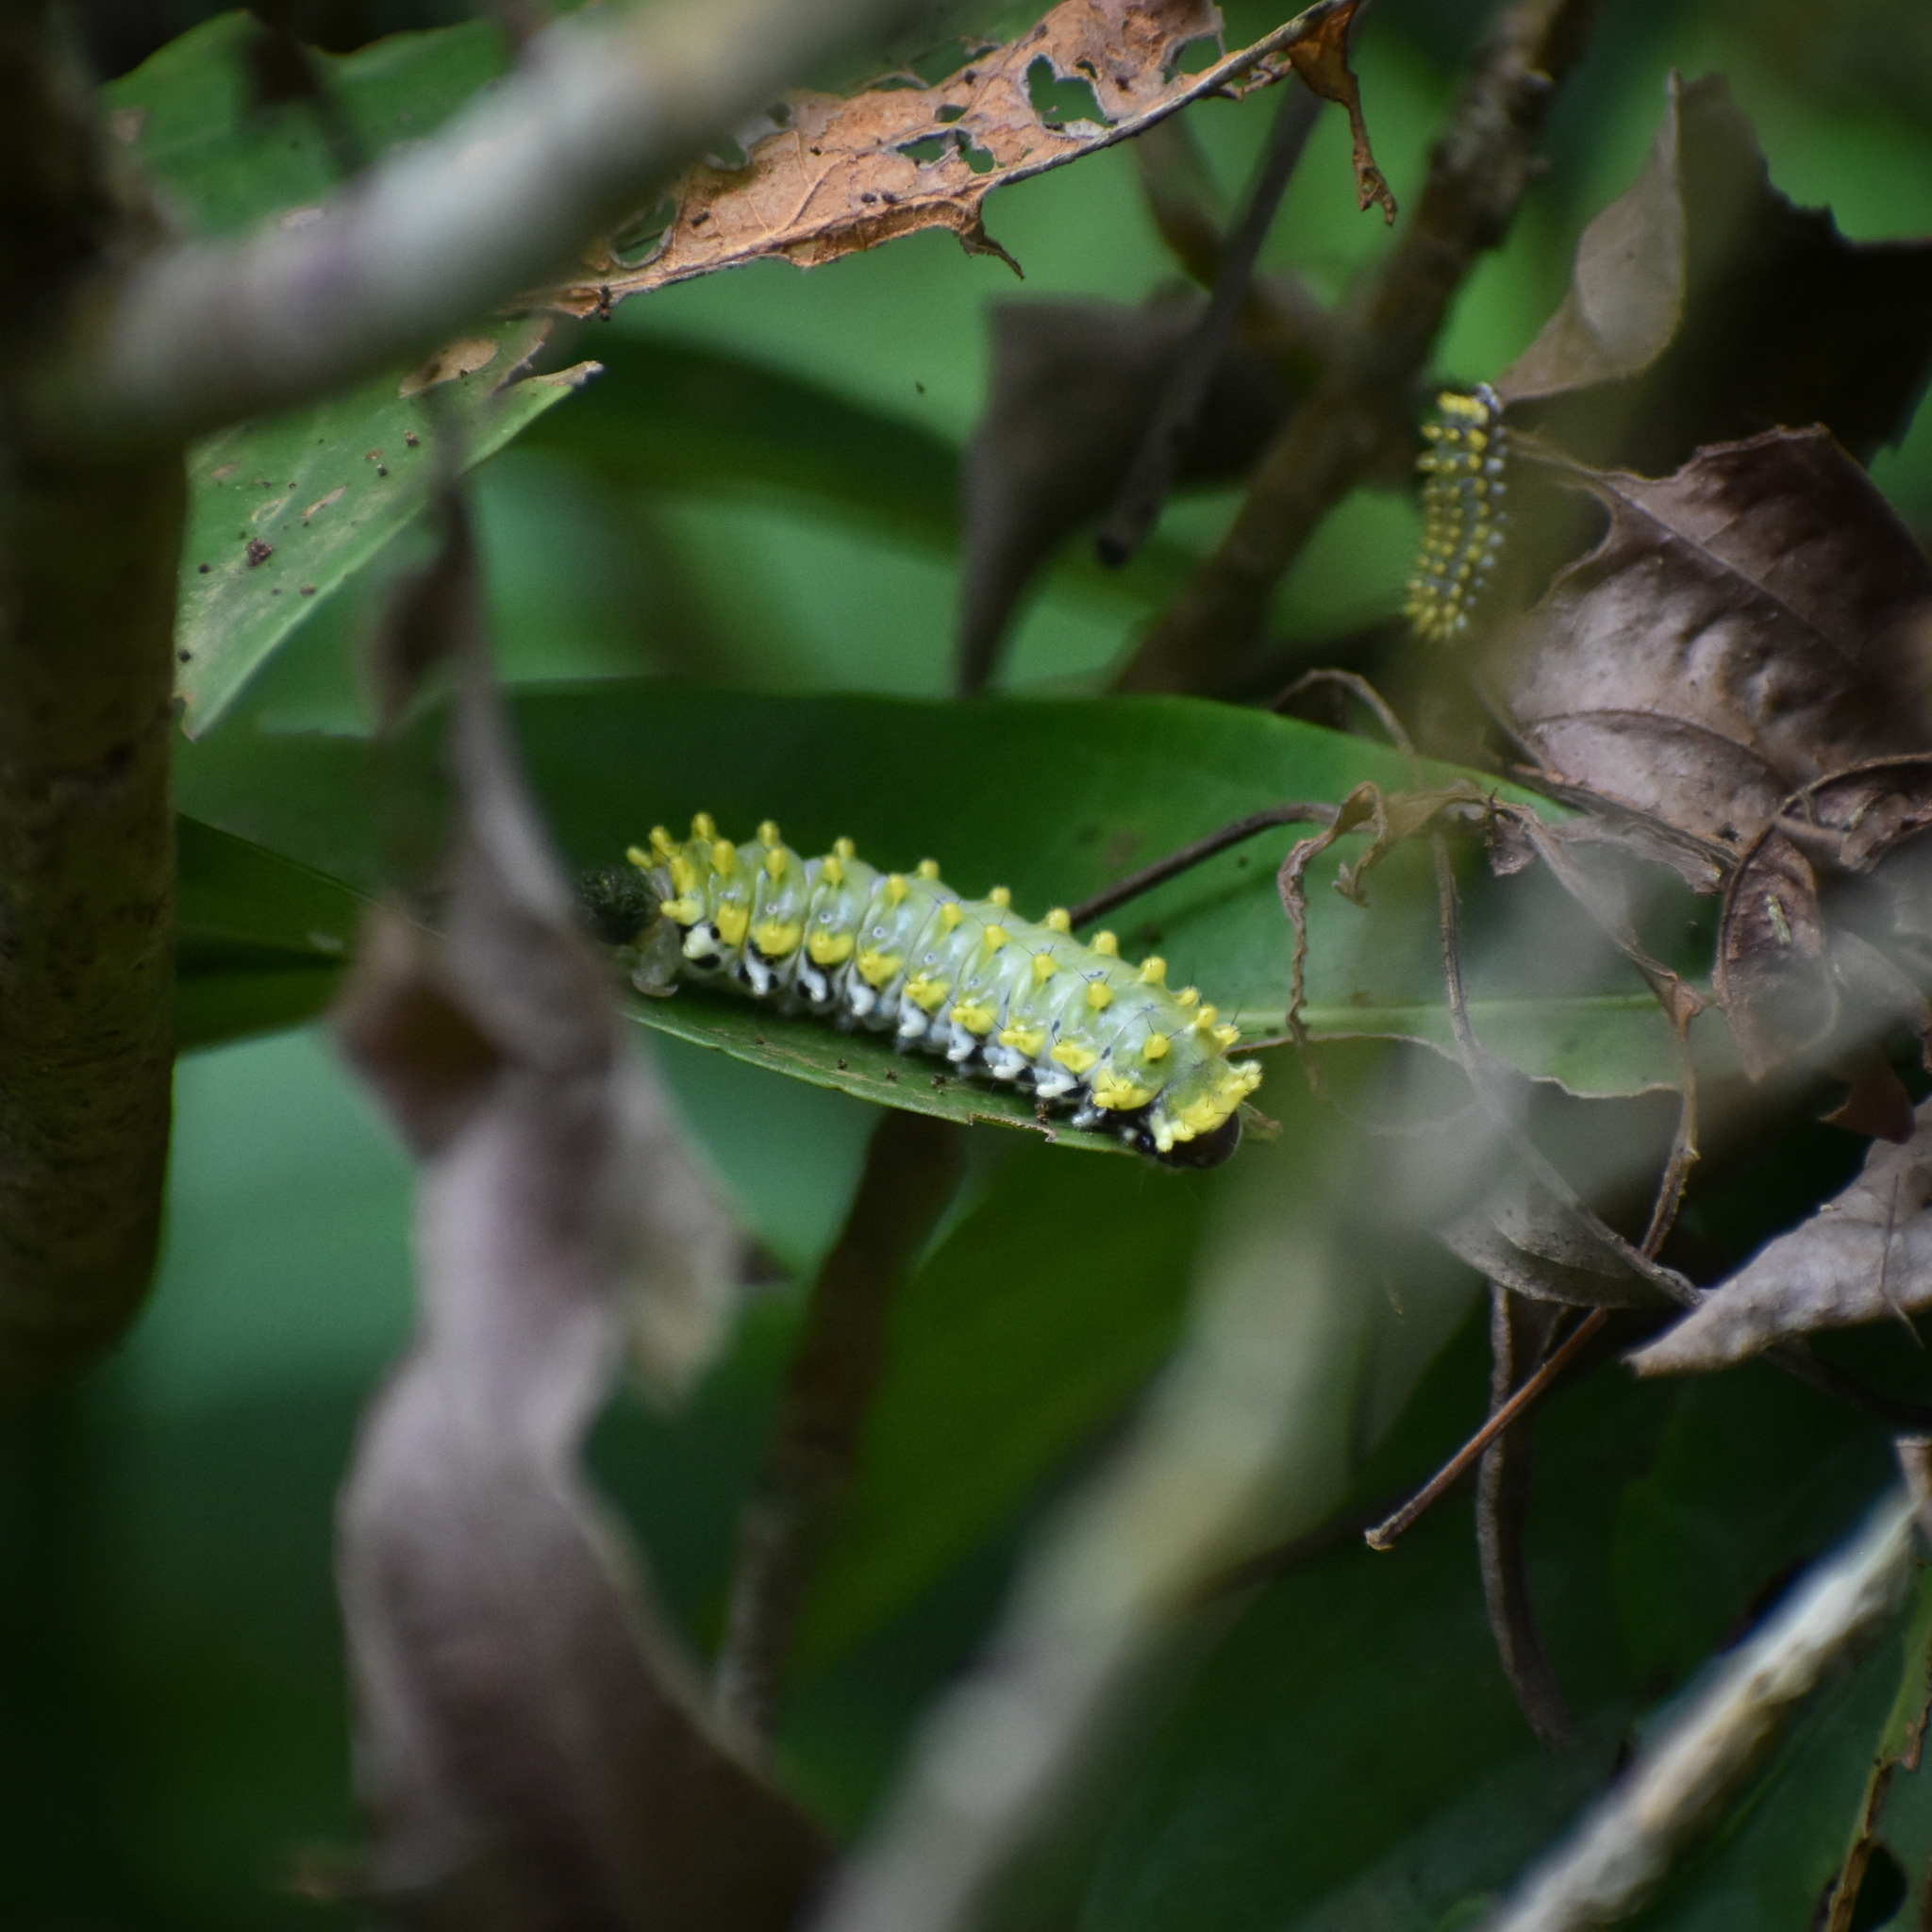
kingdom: Animalia
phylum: Arthropoda
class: Insecta
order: Lepidoptera
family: Zygaenidae
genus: Cyclosia
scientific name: Cyclosia
